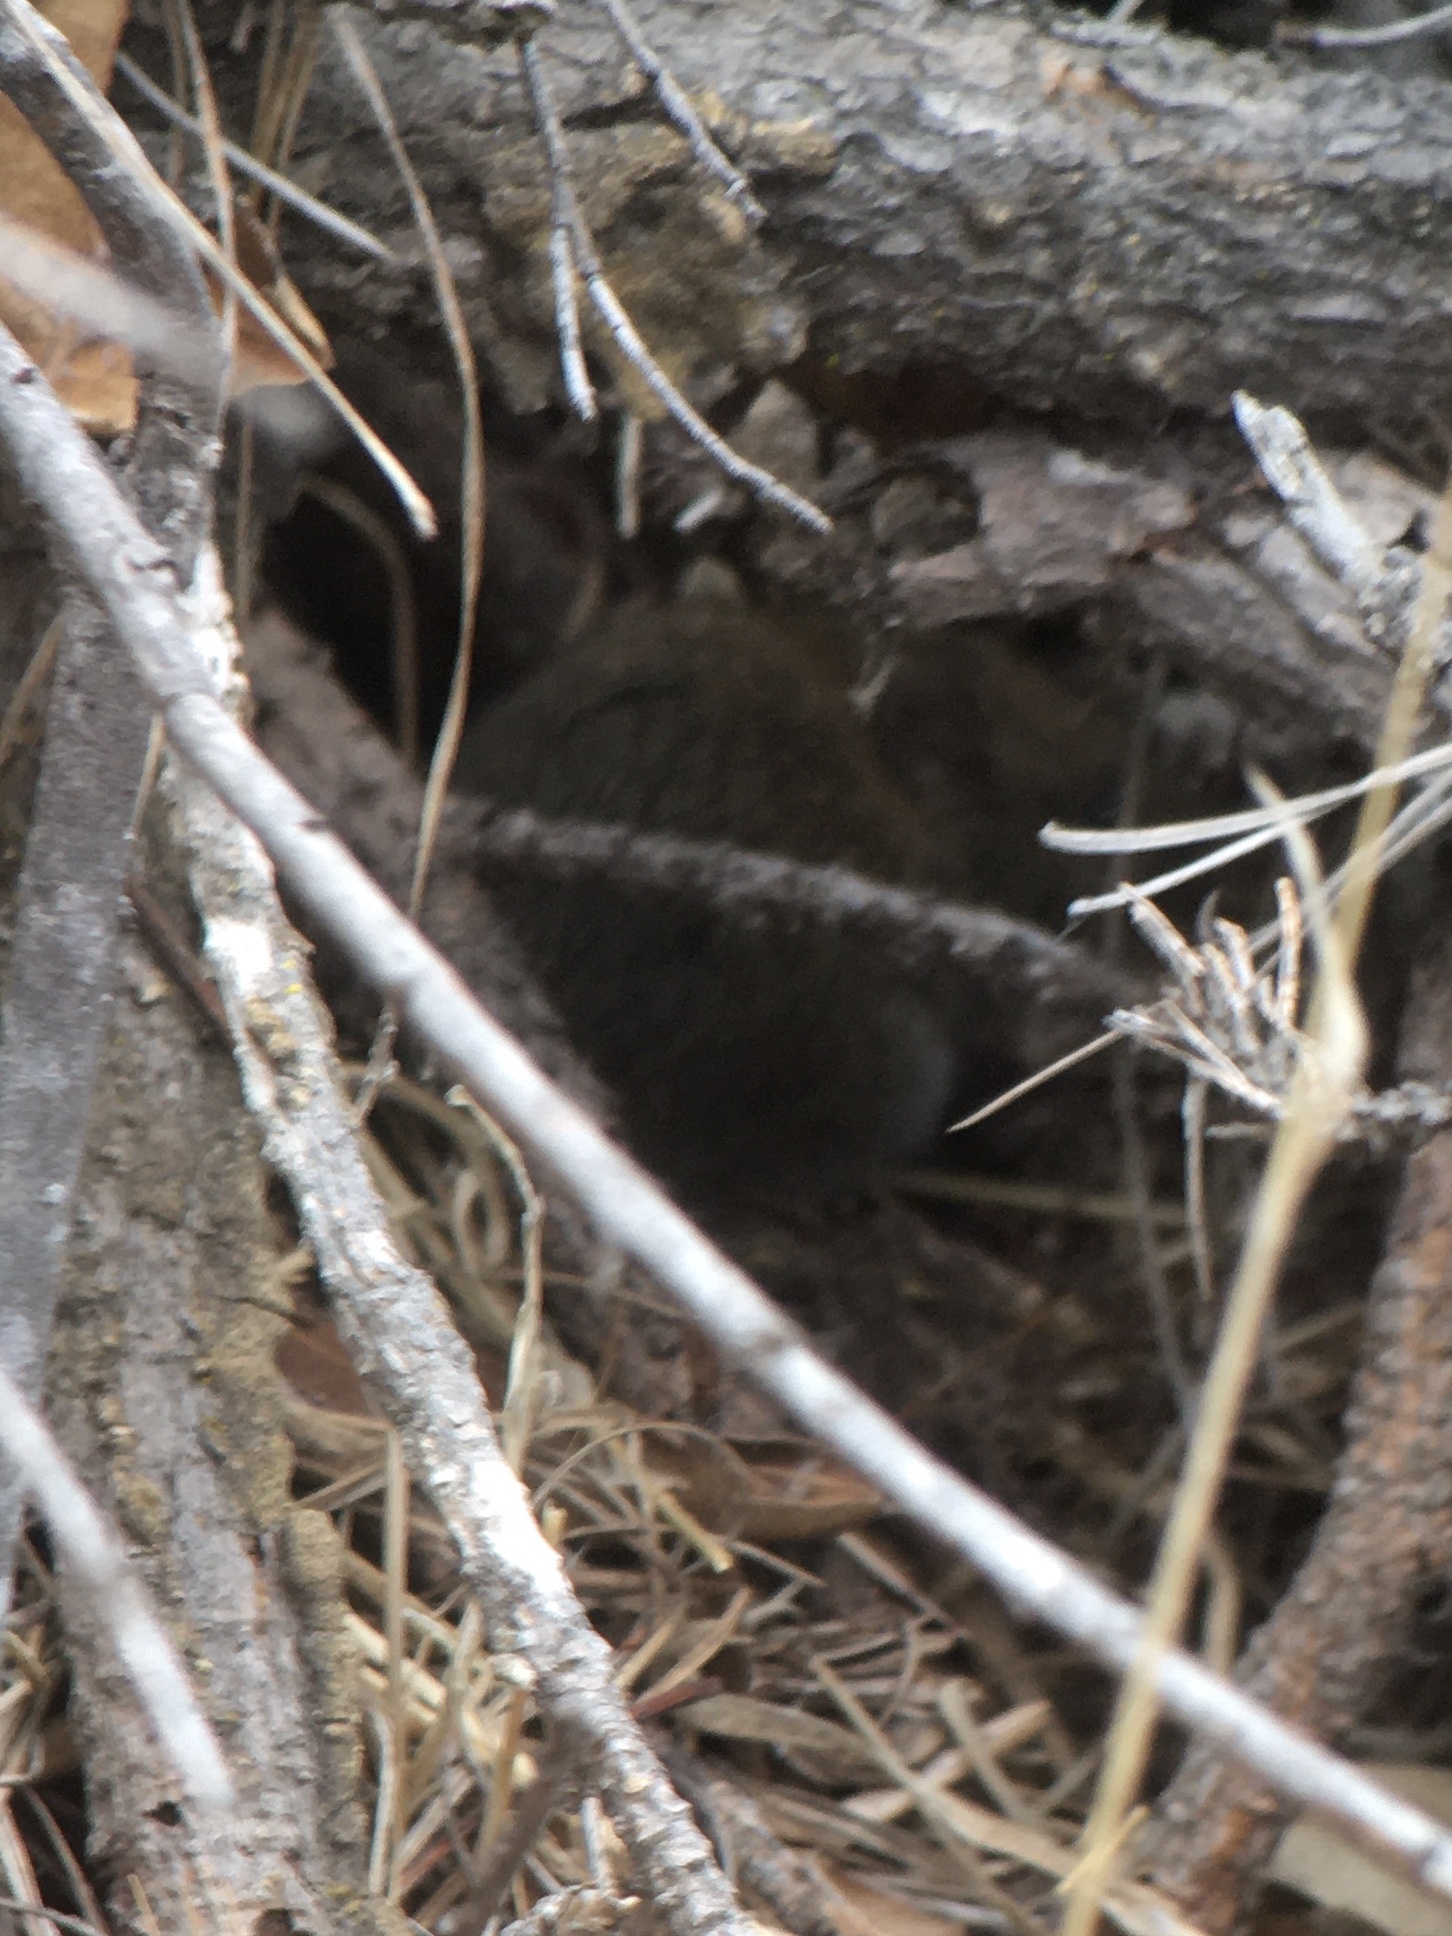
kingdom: Animalia
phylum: Chordata
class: Mammalia
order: Rodentia
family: Cricetidae
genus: Microtus
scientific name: Microtus californicus
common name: California vole
